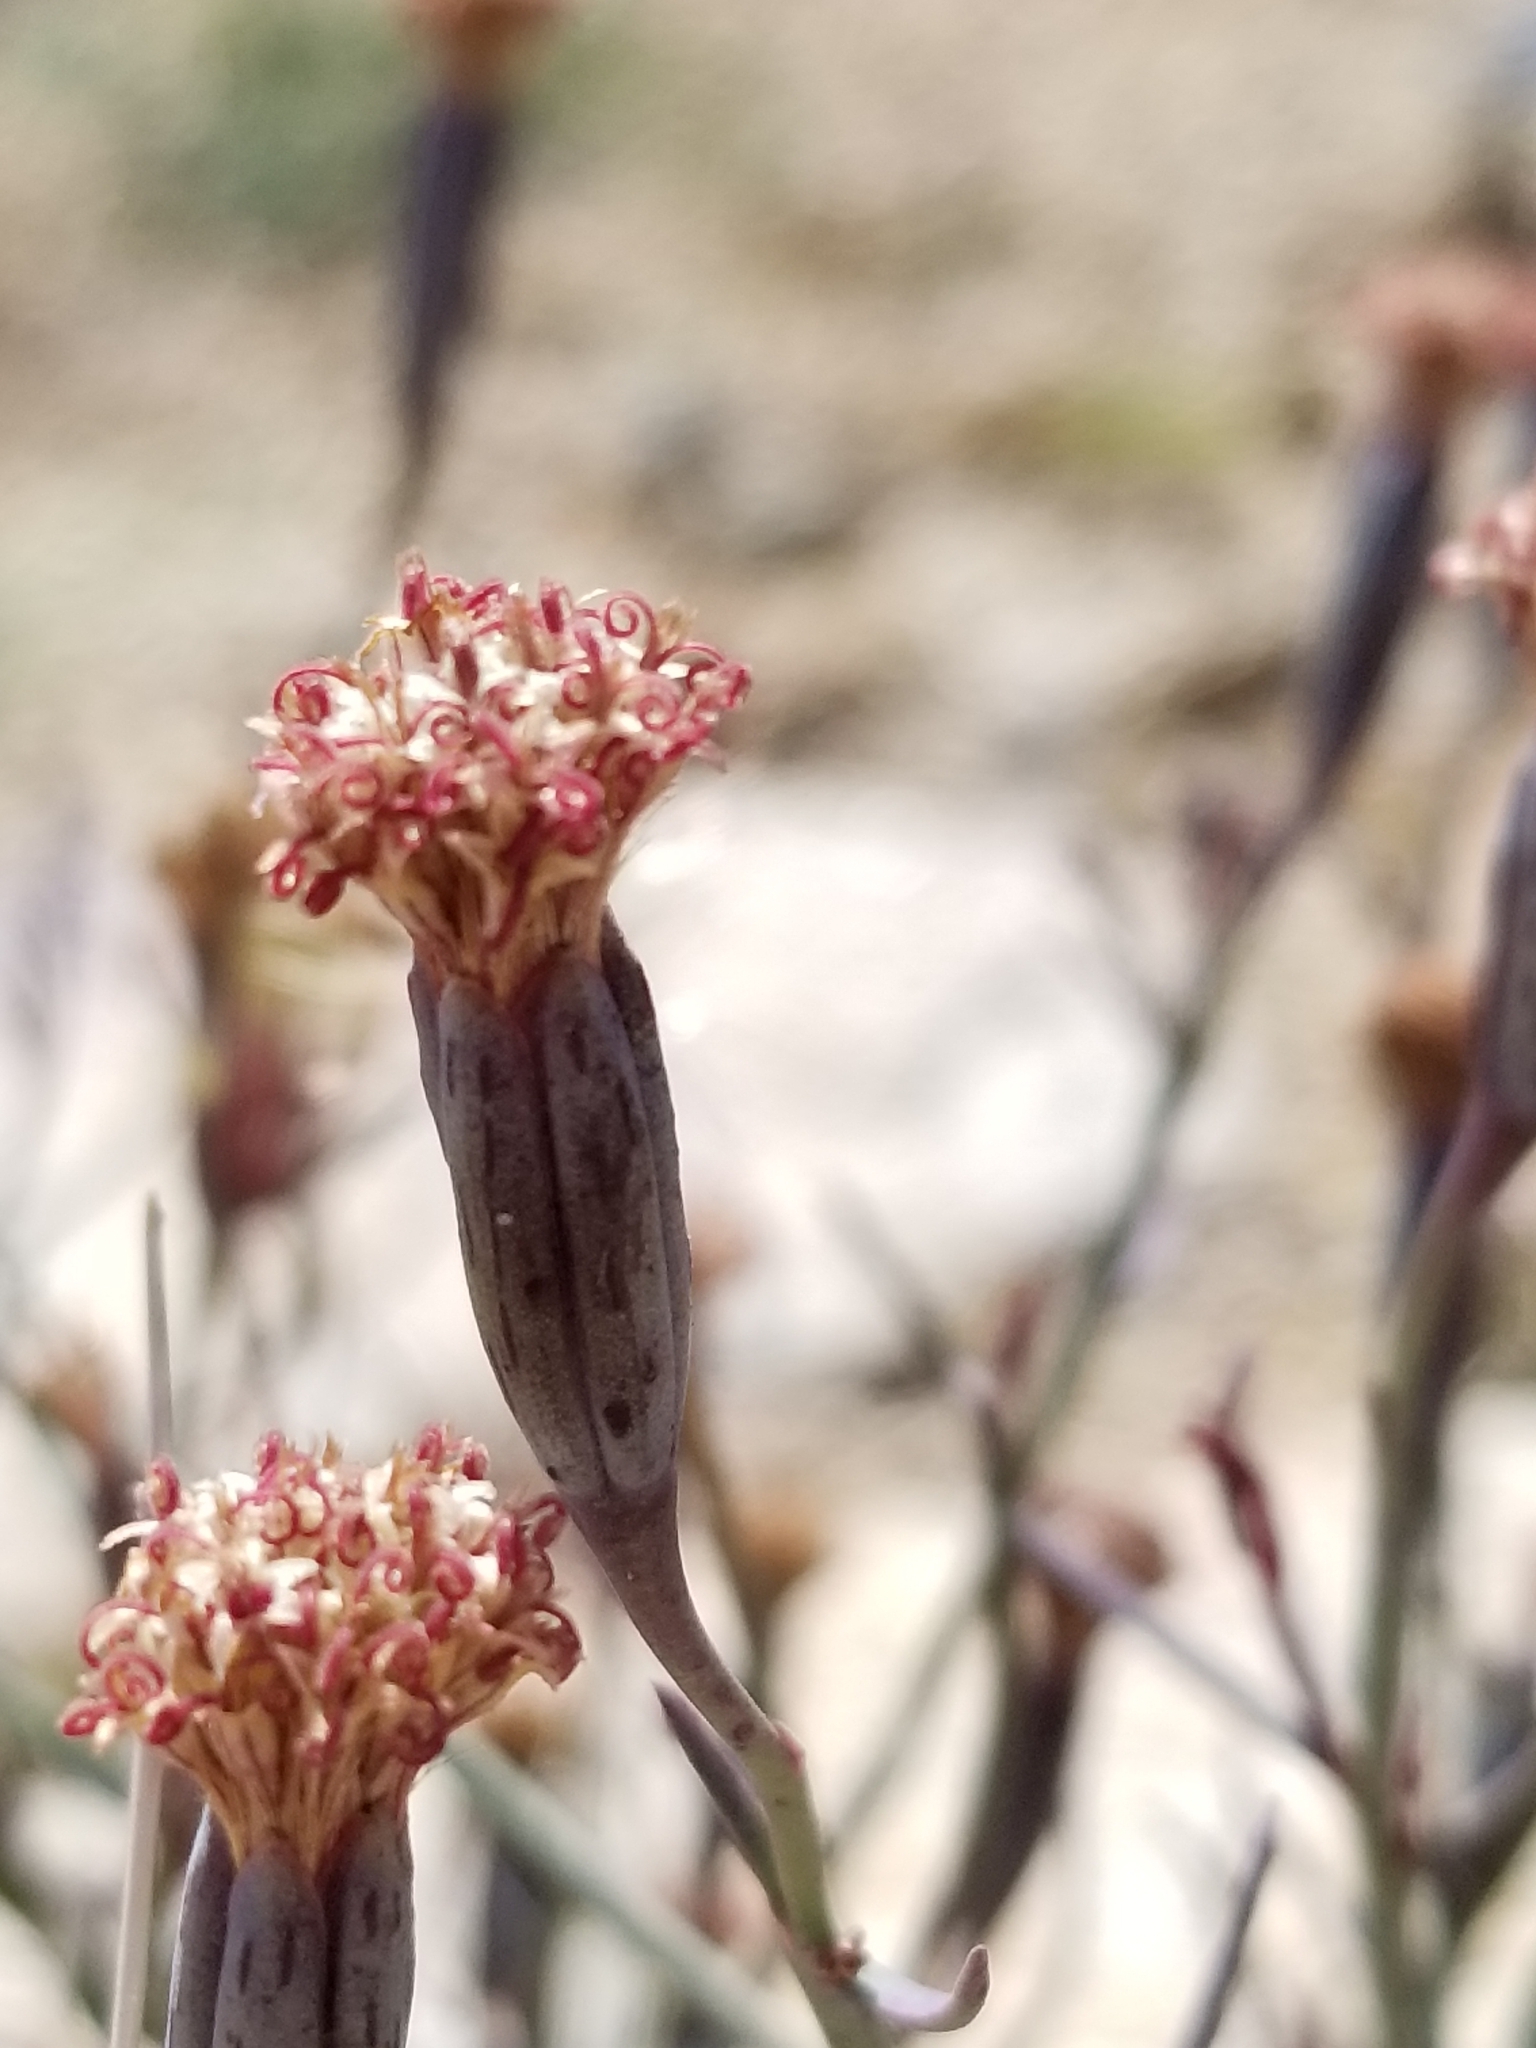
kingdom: Plantae
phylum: Tracheophyta
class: Magnoliopsida
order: Asterales
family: Asteraceae
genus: Porophyllum
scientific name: Porophyllum gracile
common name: Odora
